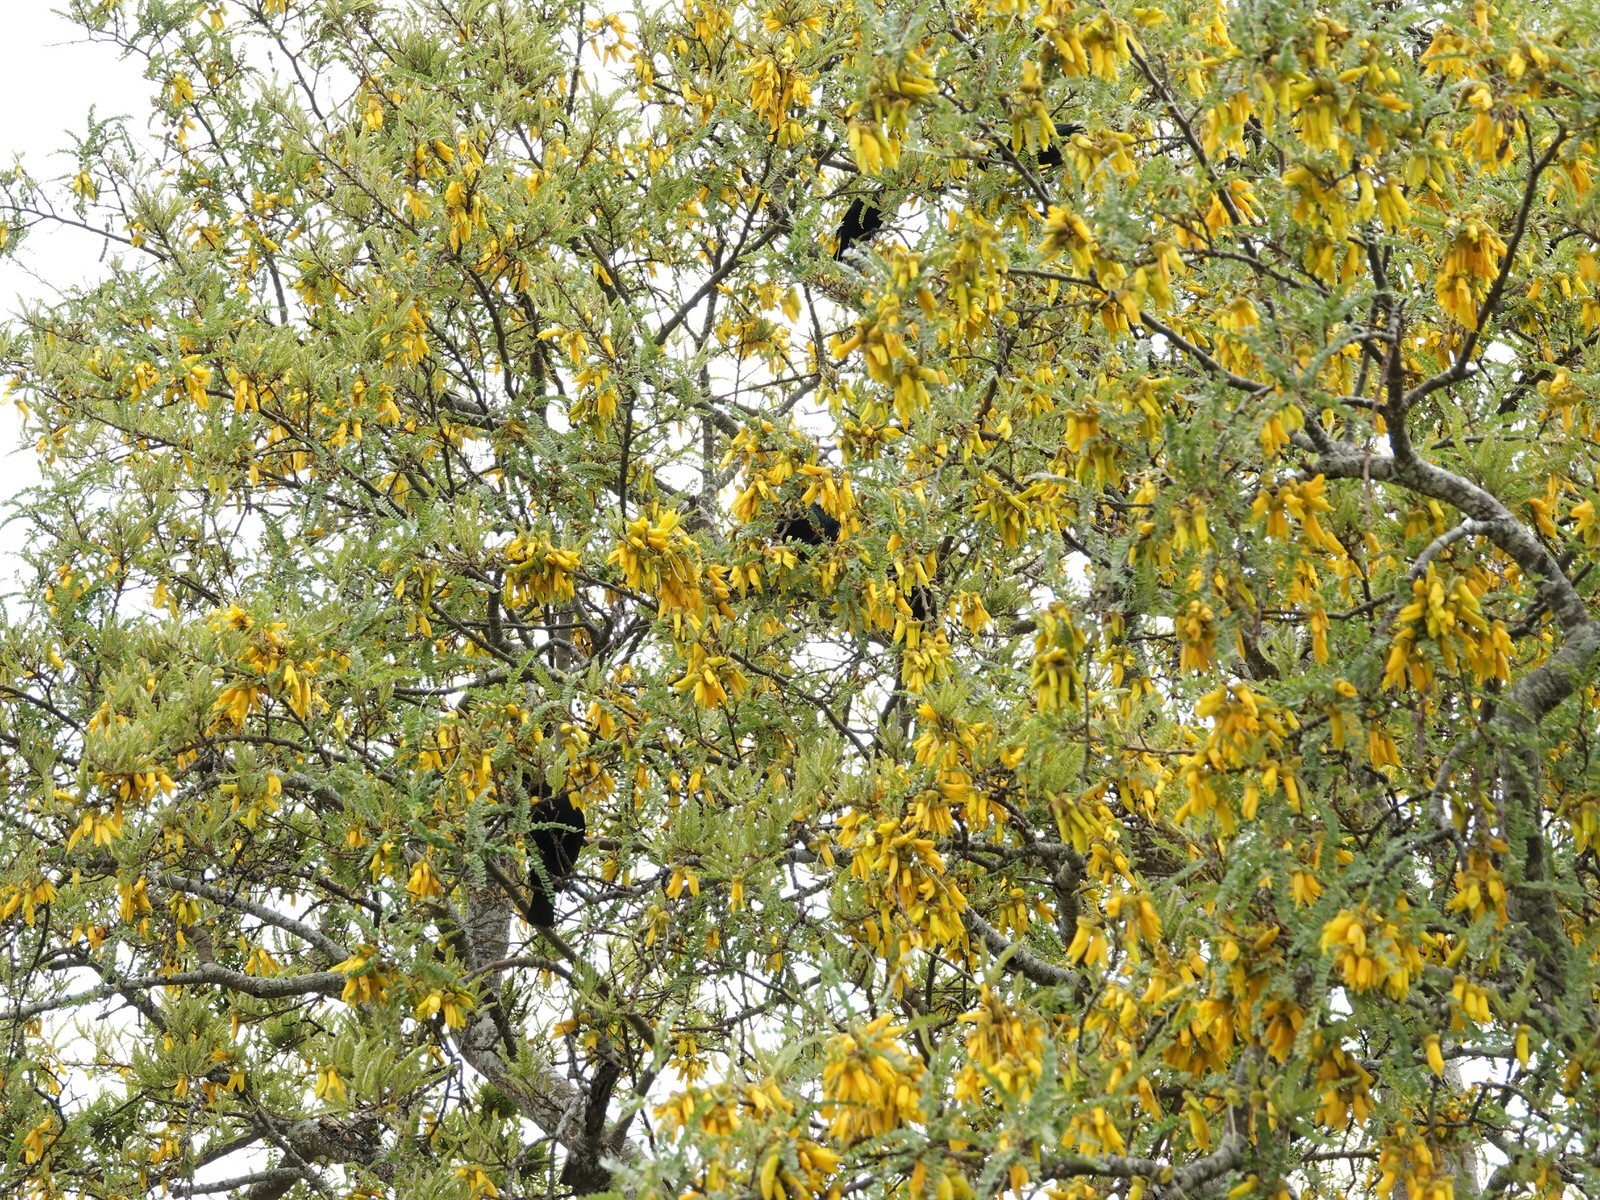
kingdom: Animalia
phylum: Chordata
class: Aves
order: Passeriformes
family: Meliphagidae
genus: Prosthemadera
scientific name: Prosthemadera novaeseelandiae
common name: Tui
